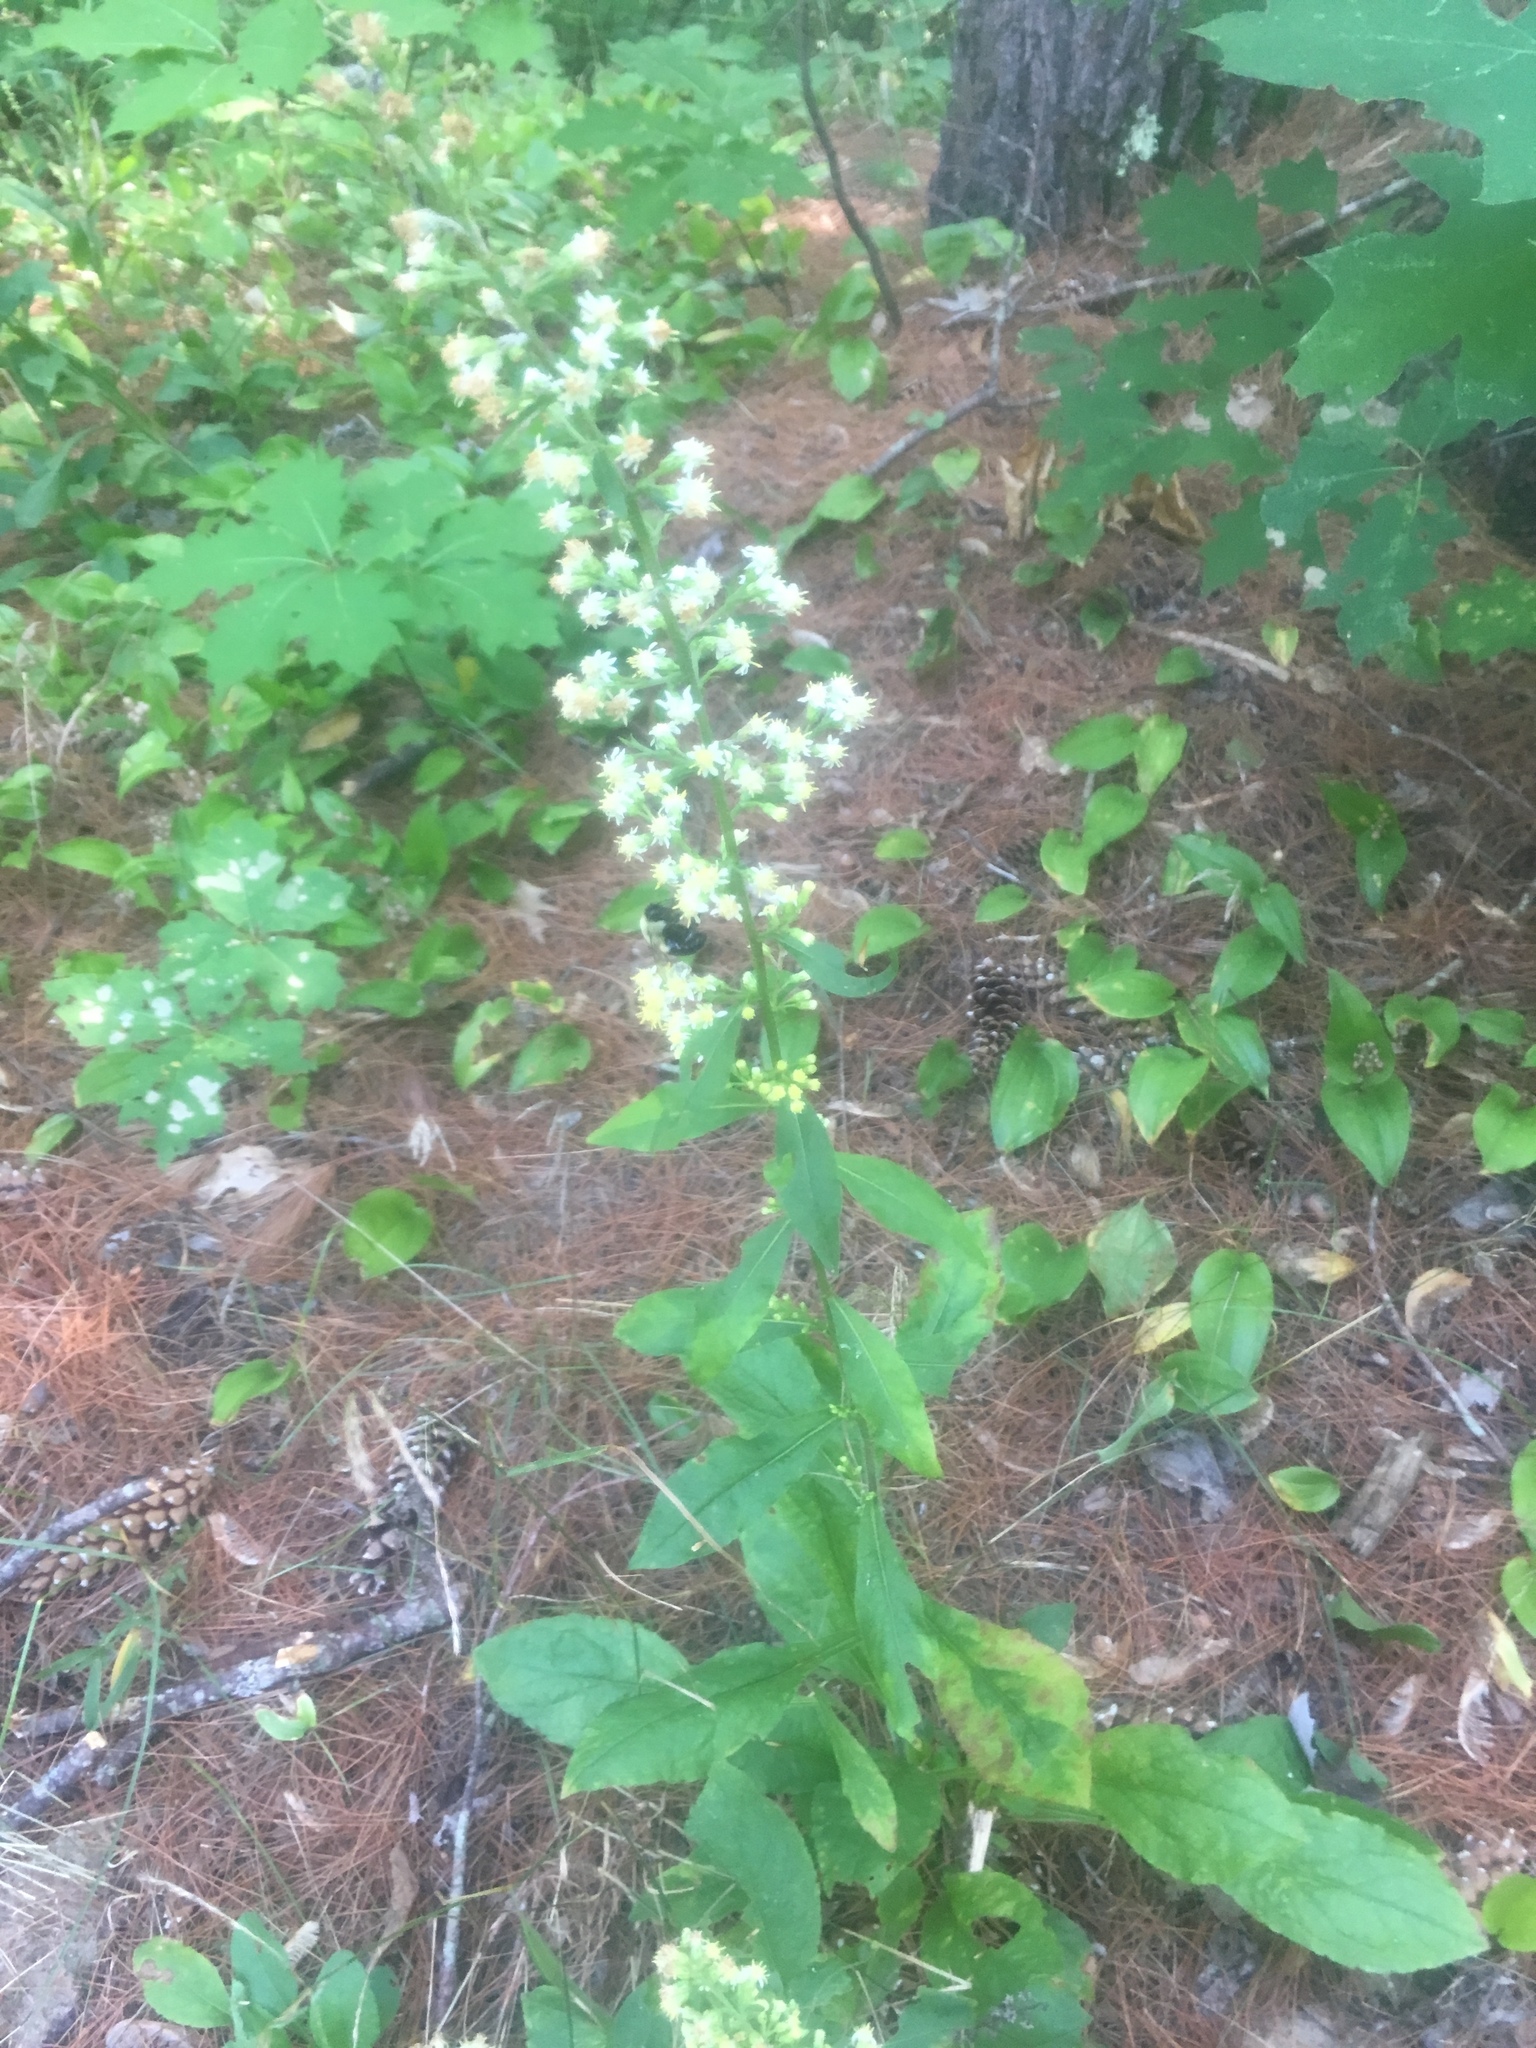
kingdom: Plantae
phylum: Tracheophyta
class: Magnoliopsida
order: Asterales
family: Asteraceae
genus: Solidago
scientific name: Solidago bicolor
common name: Silverrod
